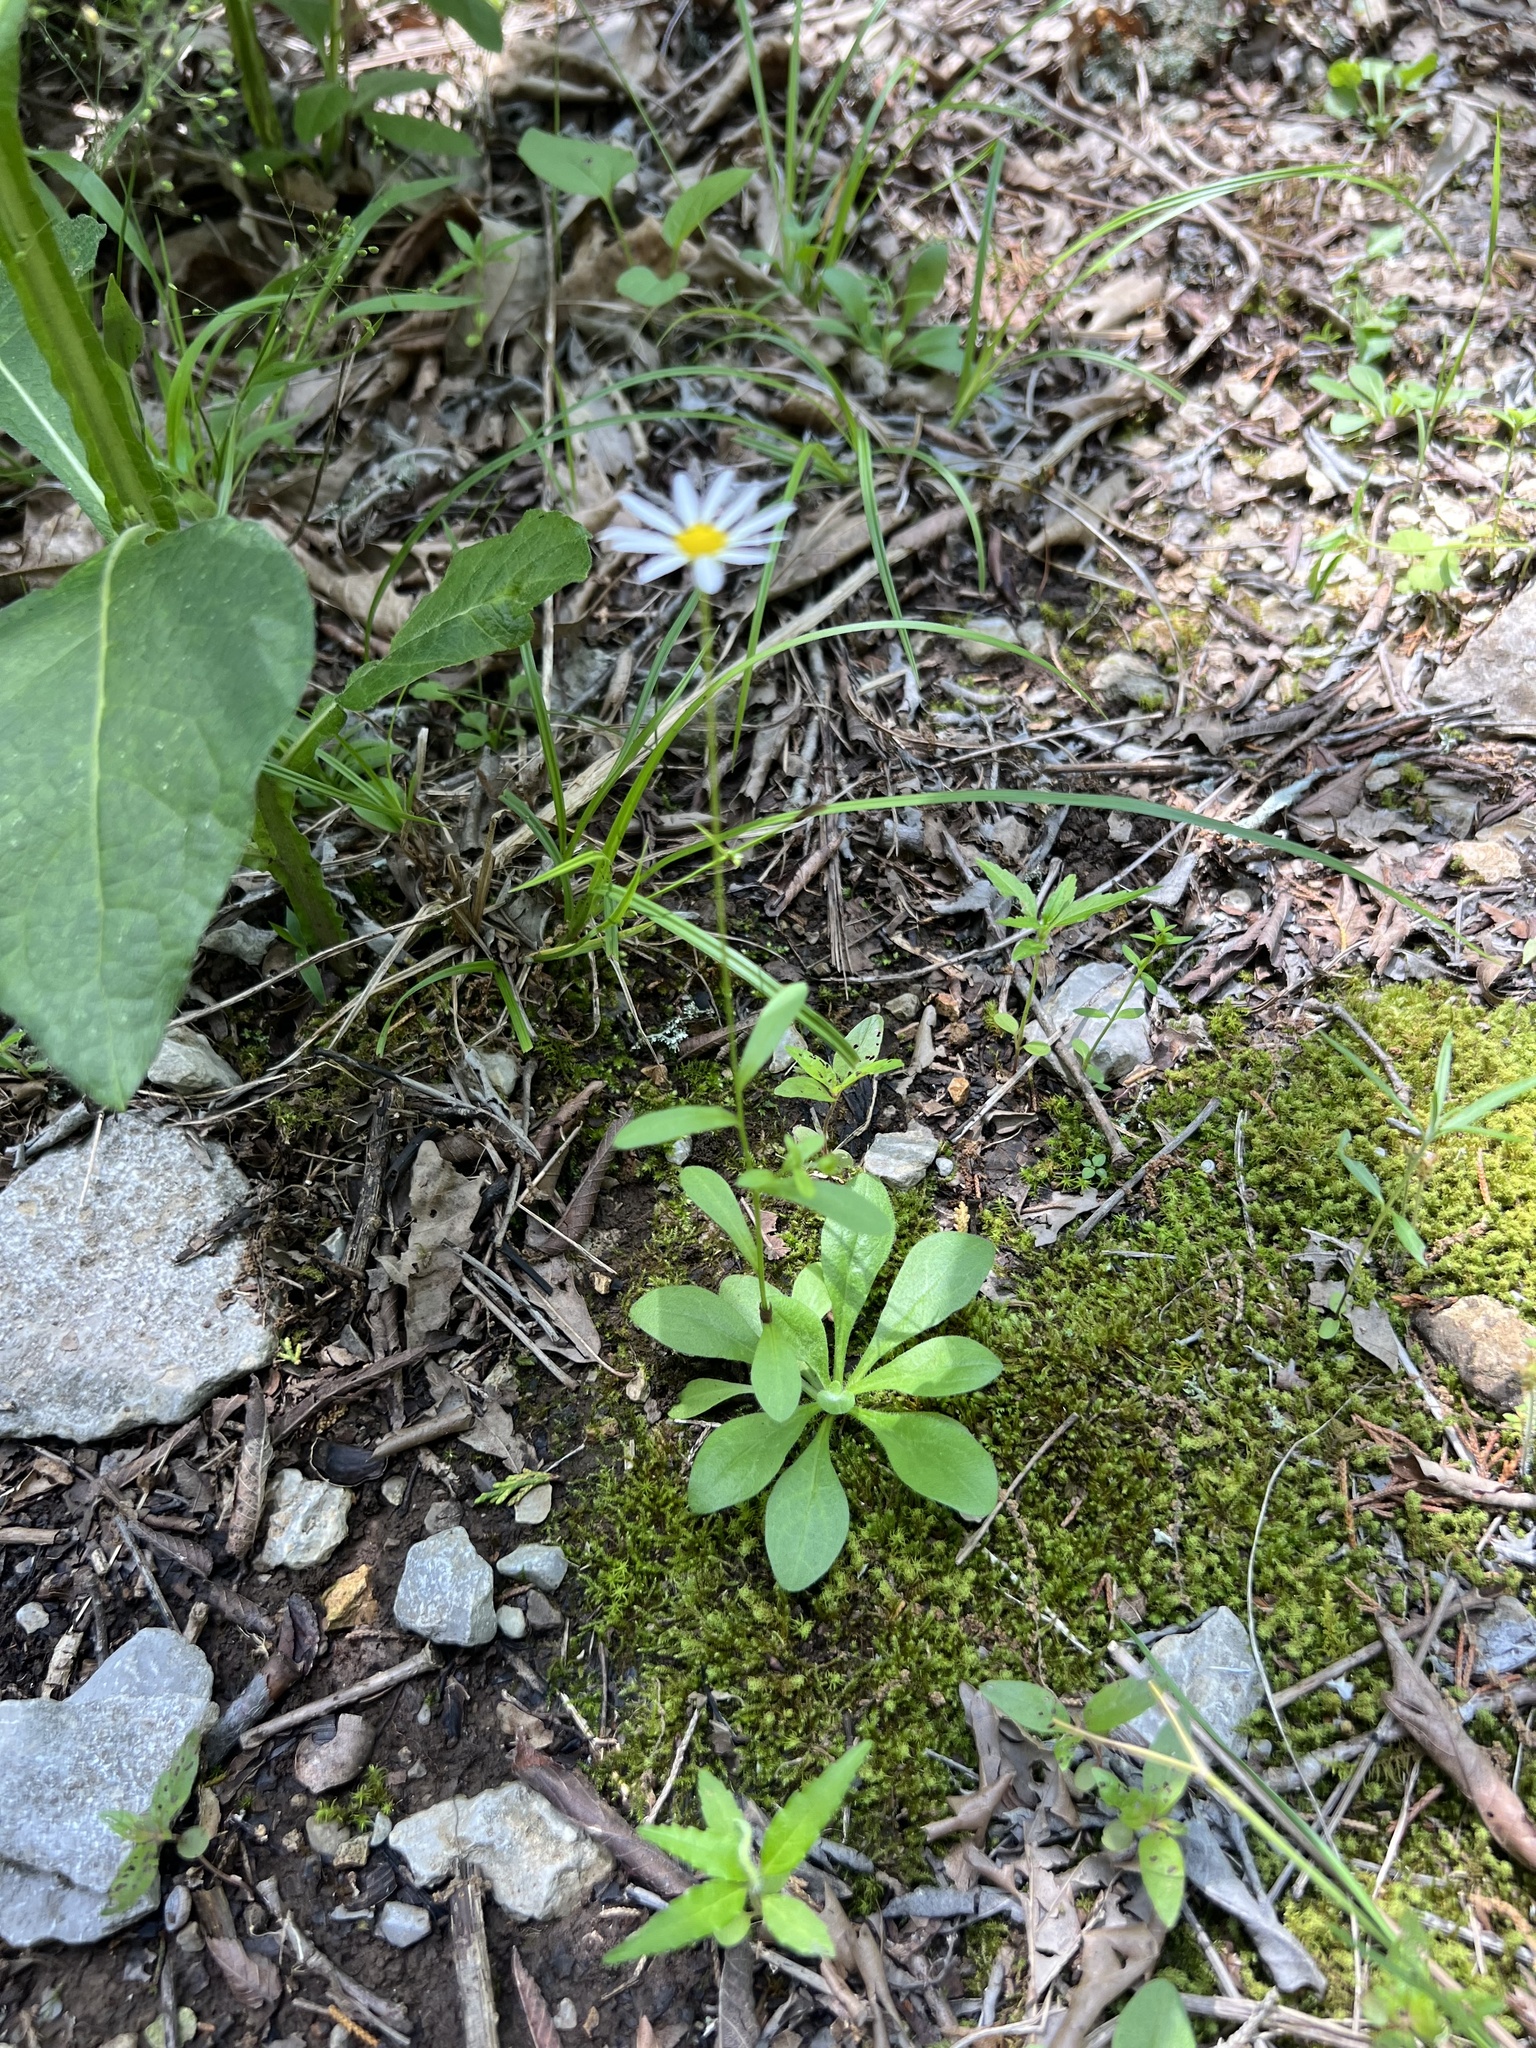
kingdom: Plantae
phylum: Tracheophyta
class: Magnoliopsida
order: Asterales
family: Asteraceae
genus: Astranthium
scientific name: Astranthium integrifolium
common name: Western daisy
